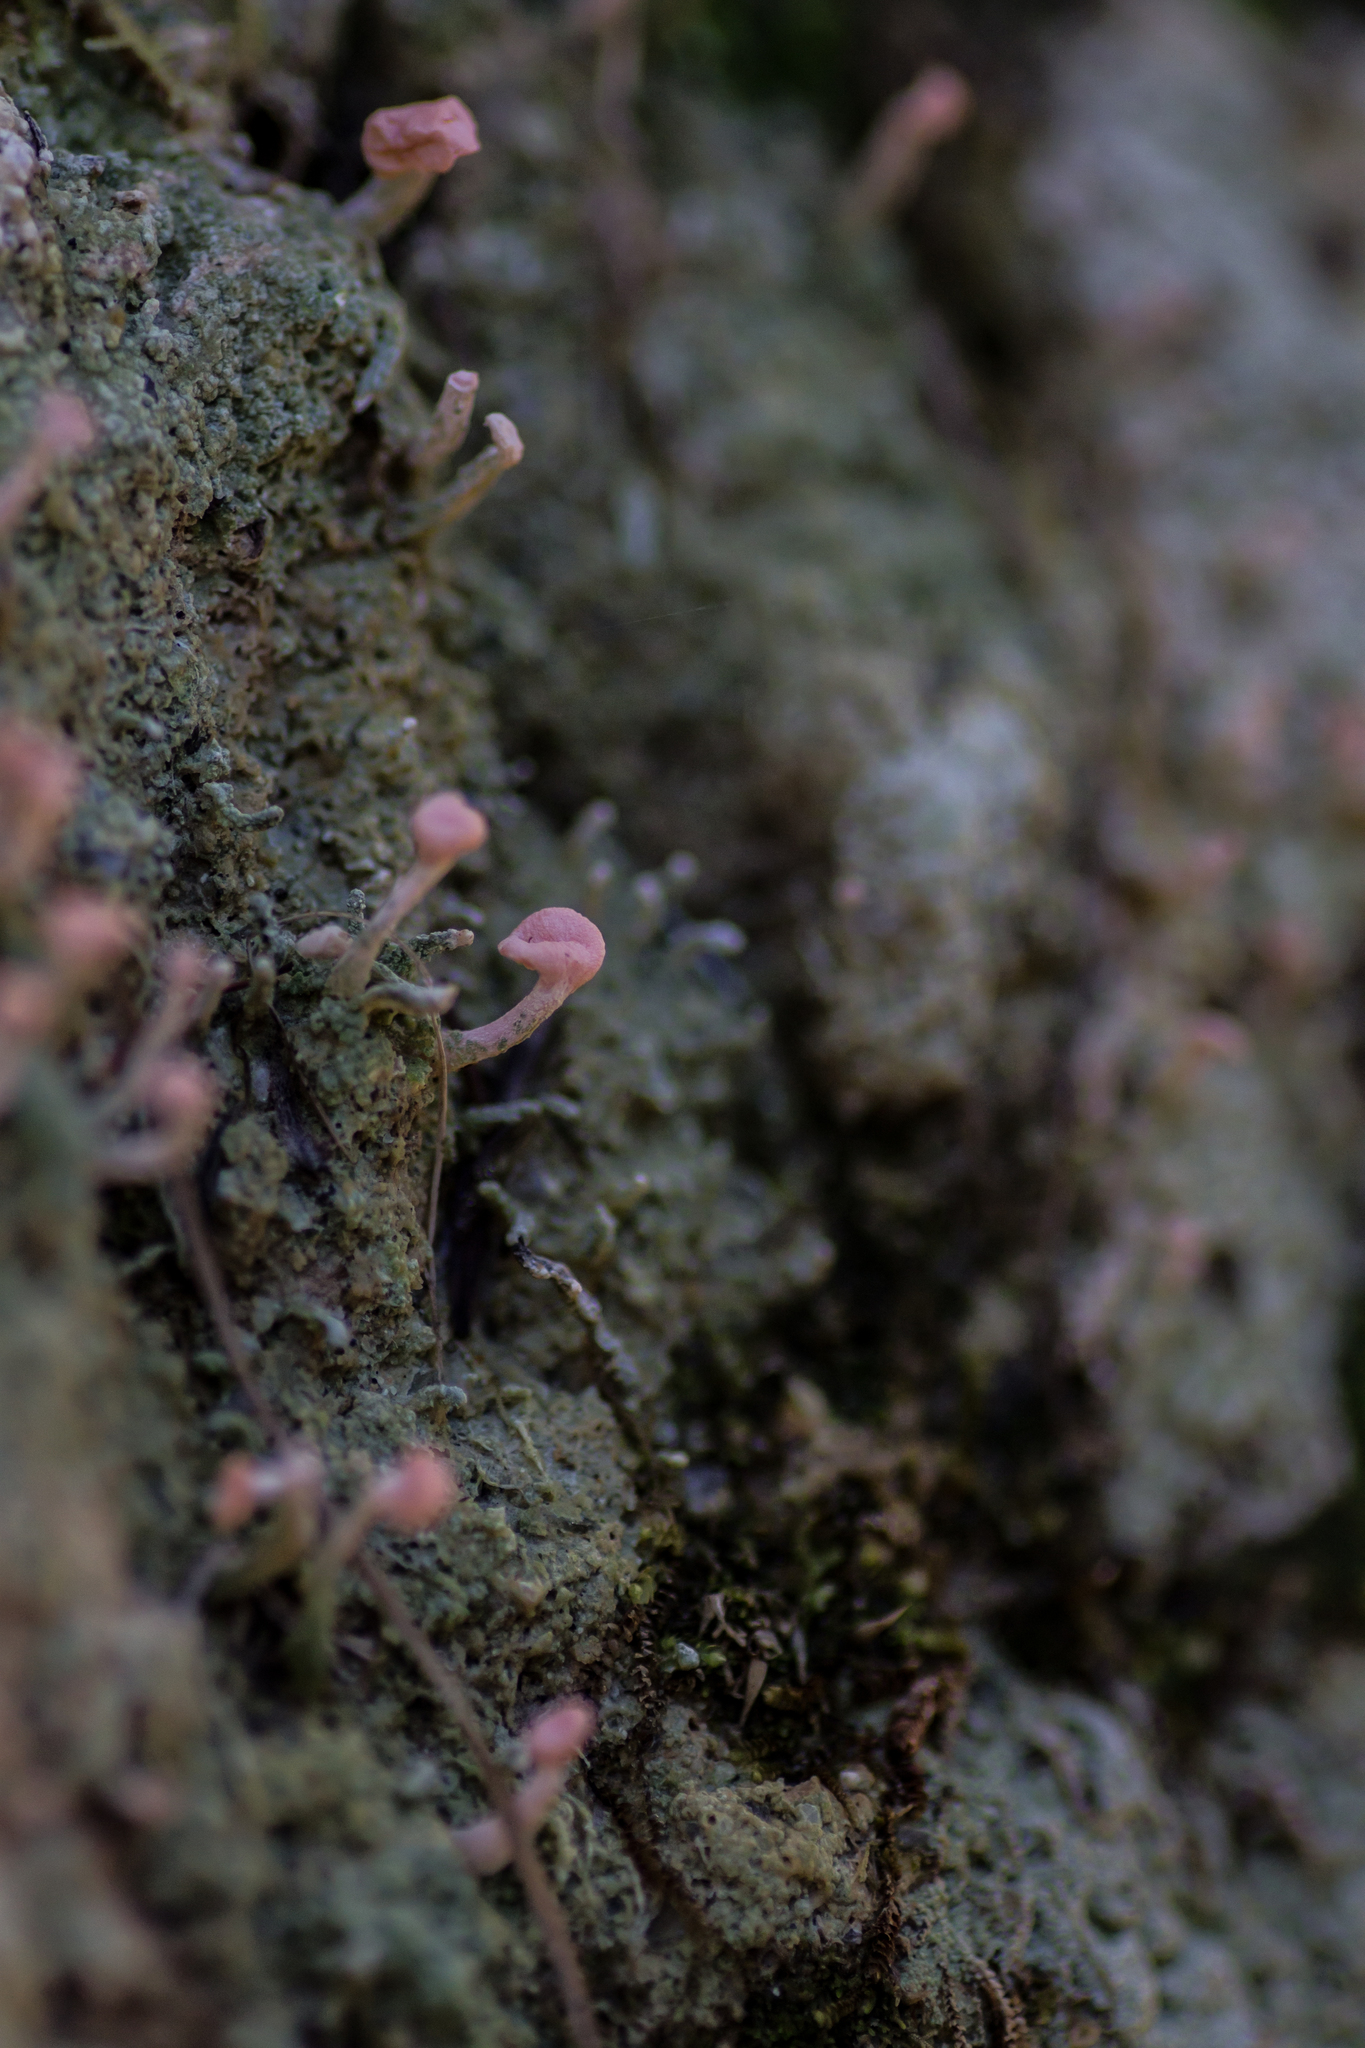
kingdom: Fungi
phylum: Ascomycota
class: Lecanoromycetes
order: Pertusariales
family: Icmadophilaceae
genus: Dibaeis
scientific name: Dibaeis arcuata
